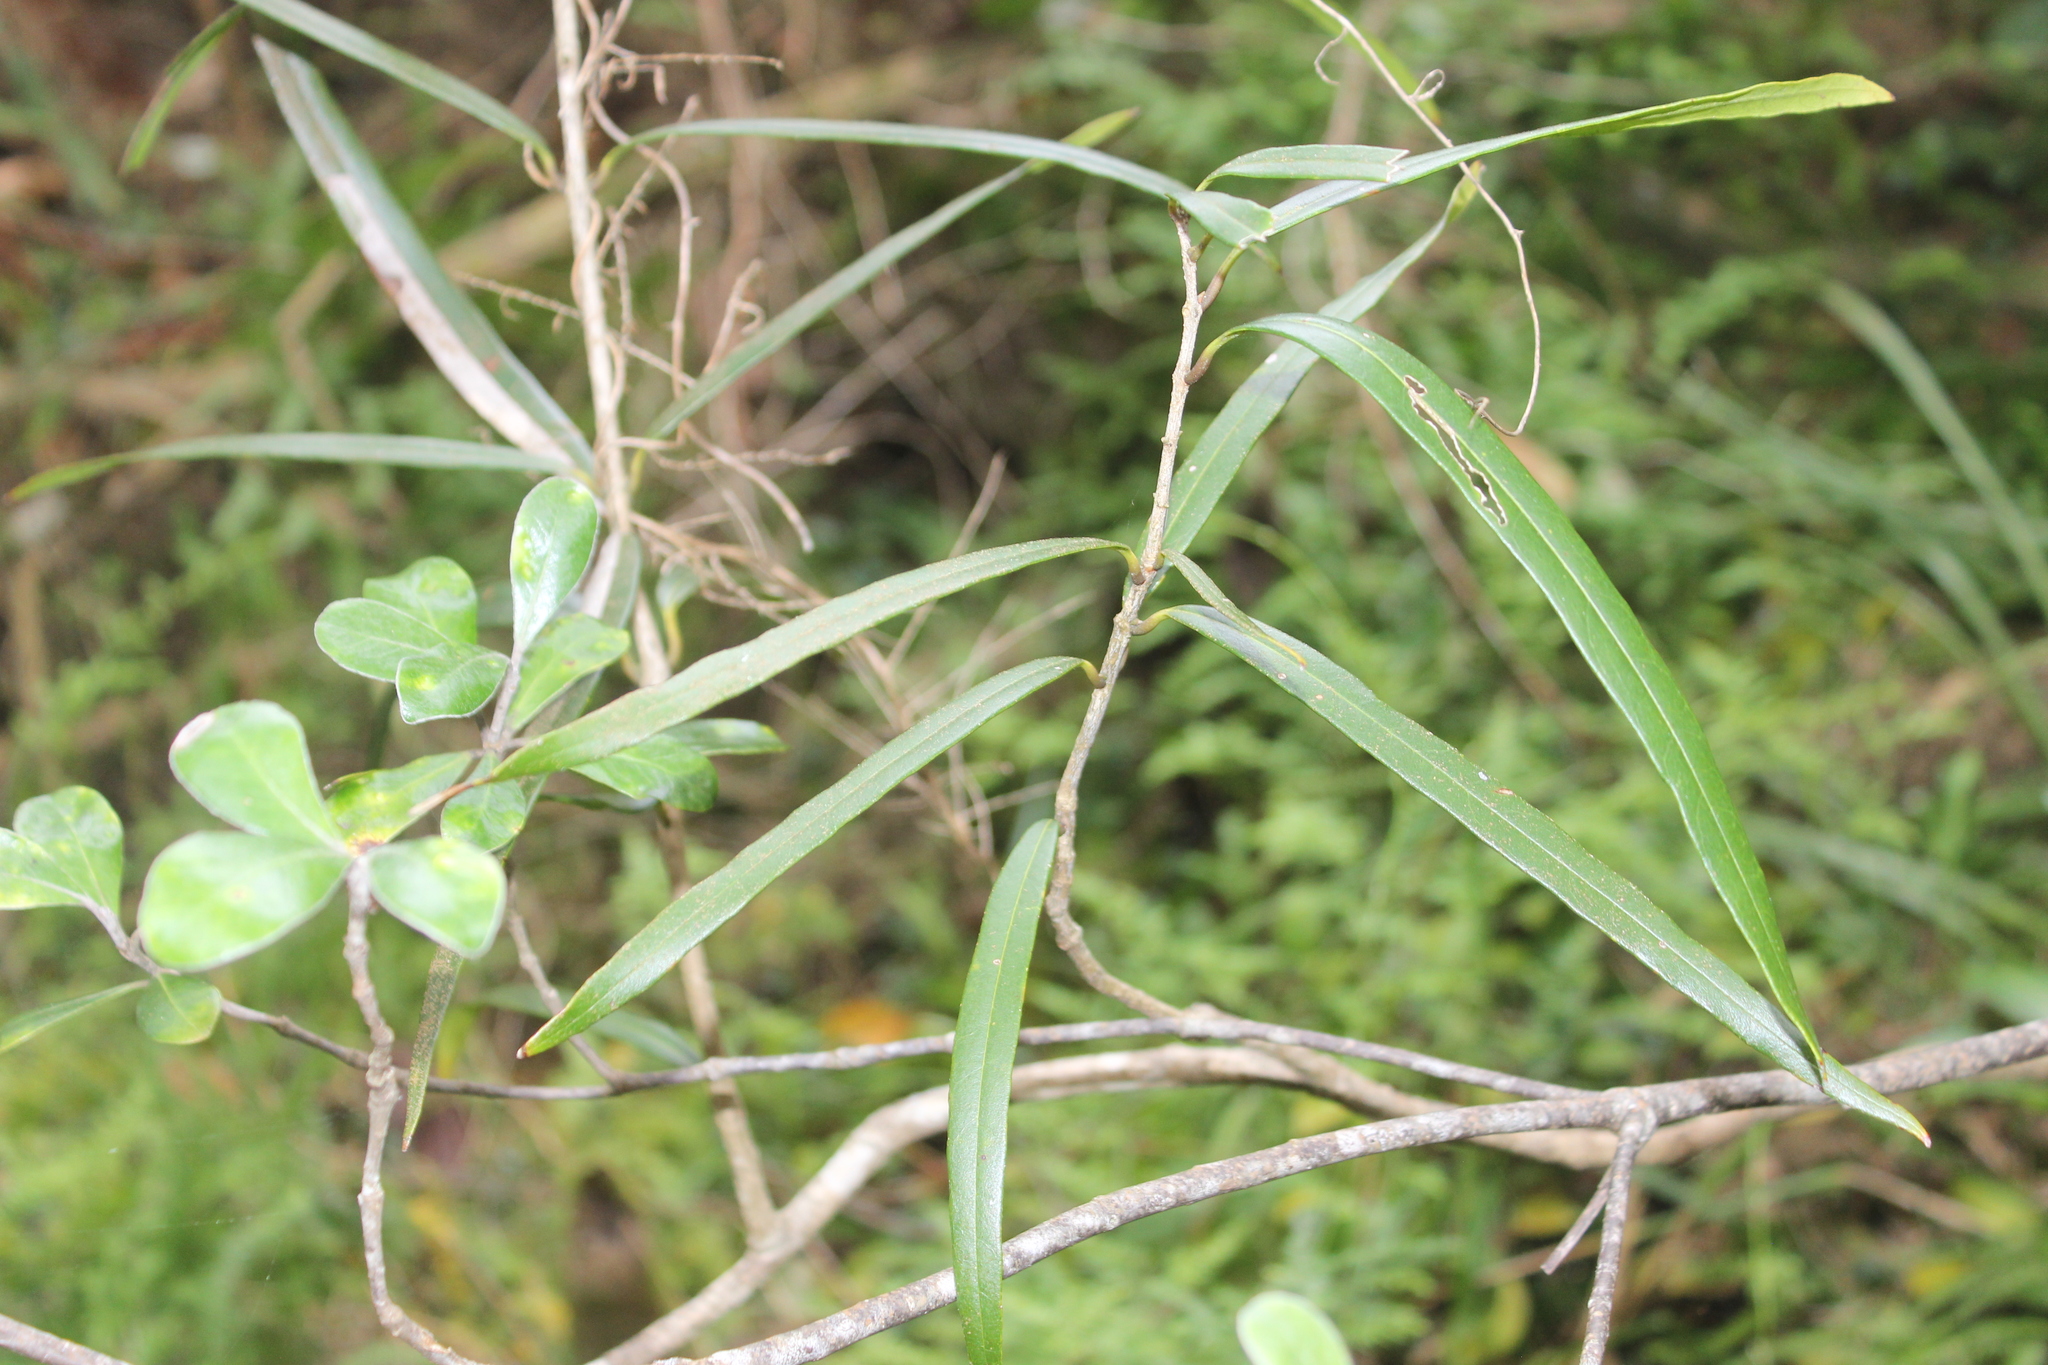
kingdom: Plantae
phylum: Tracheophyta
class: Magnoliopsida
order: Lamiales
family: Oleaceae
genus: Nestegis
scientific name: Nestegis lanceolata
